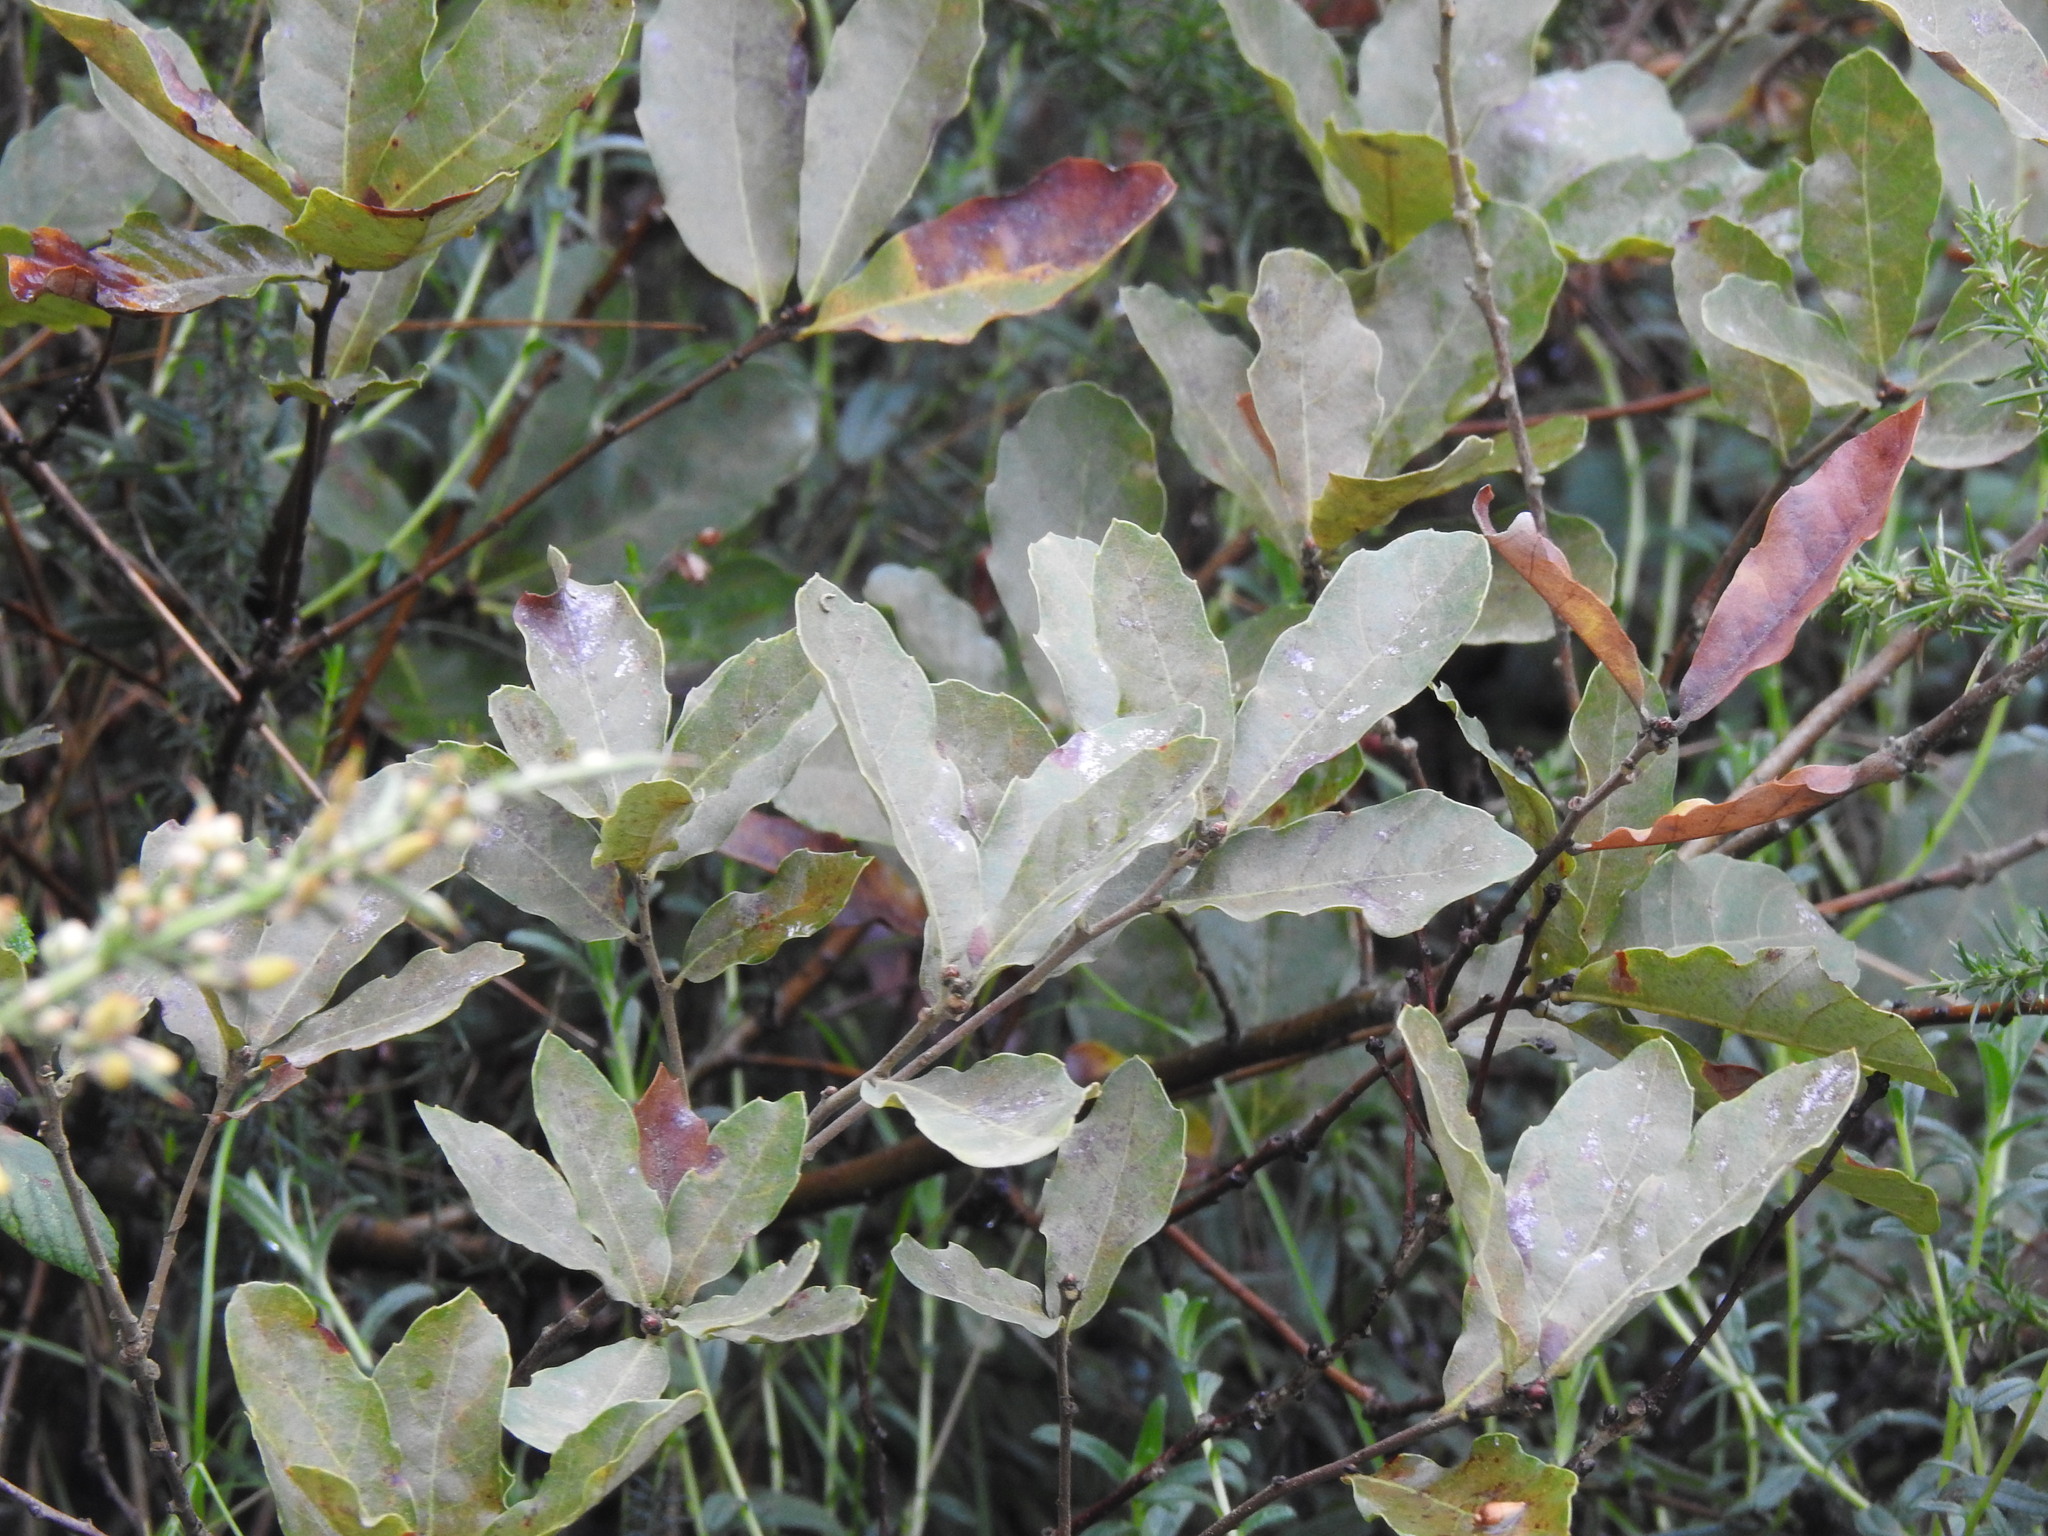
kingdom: Plantae
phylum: Tracheophyta
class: Magnoliopsida
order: Fagales
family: Fagaceae
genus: Quercus
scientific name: Quercus lusitanica
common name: Scrub gall oak
